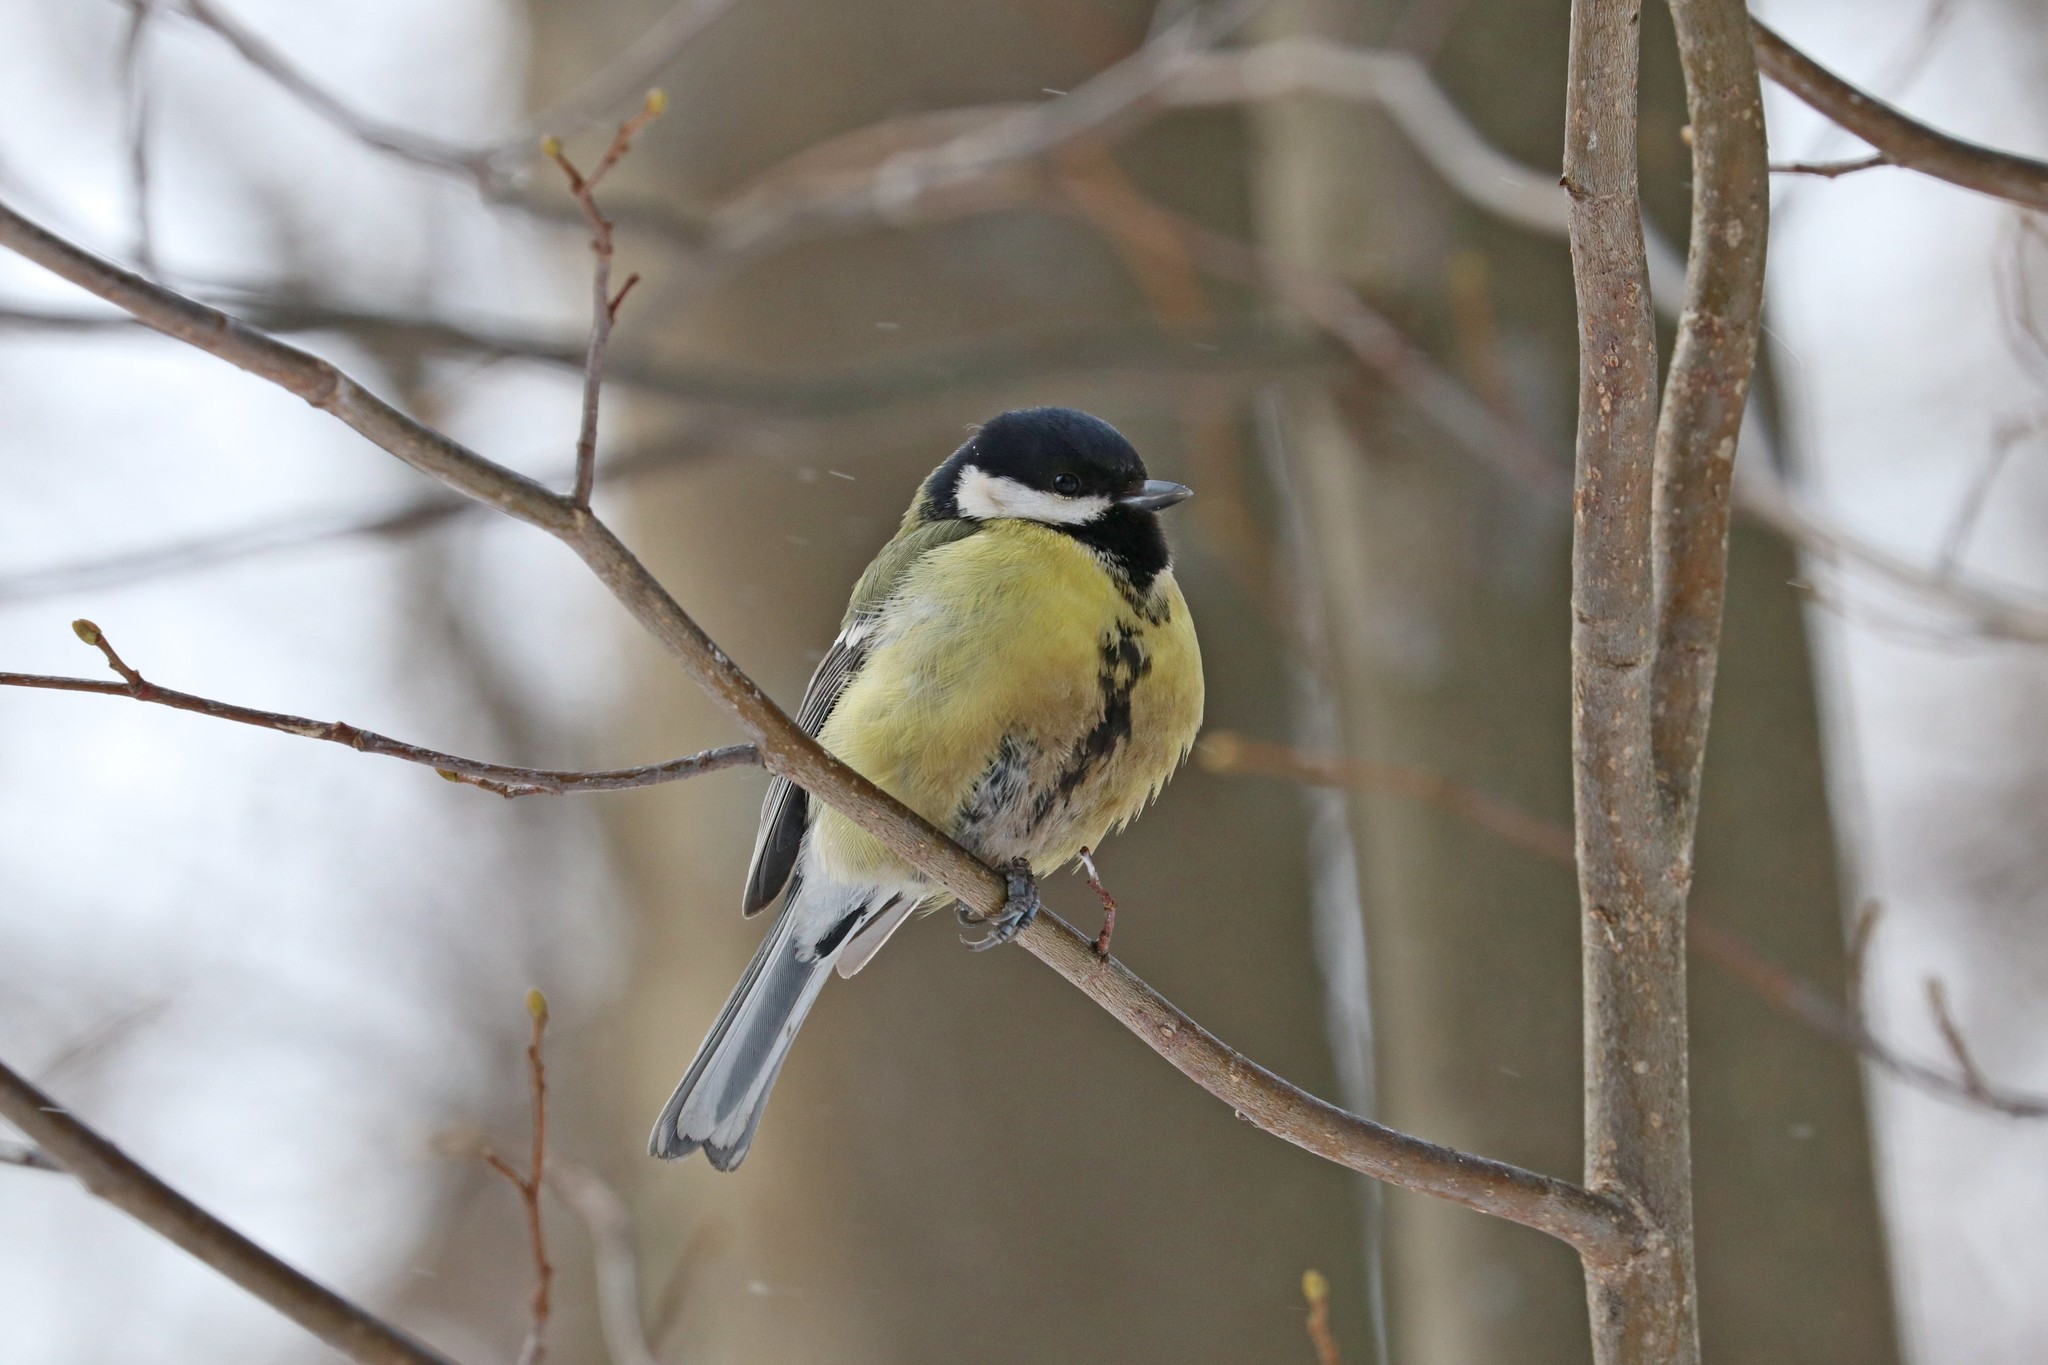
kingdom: Animalia
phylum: Chordata
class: Aves
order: Passeriformes
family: Paridae
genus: Parus
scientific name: Parus major
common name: Great tit
